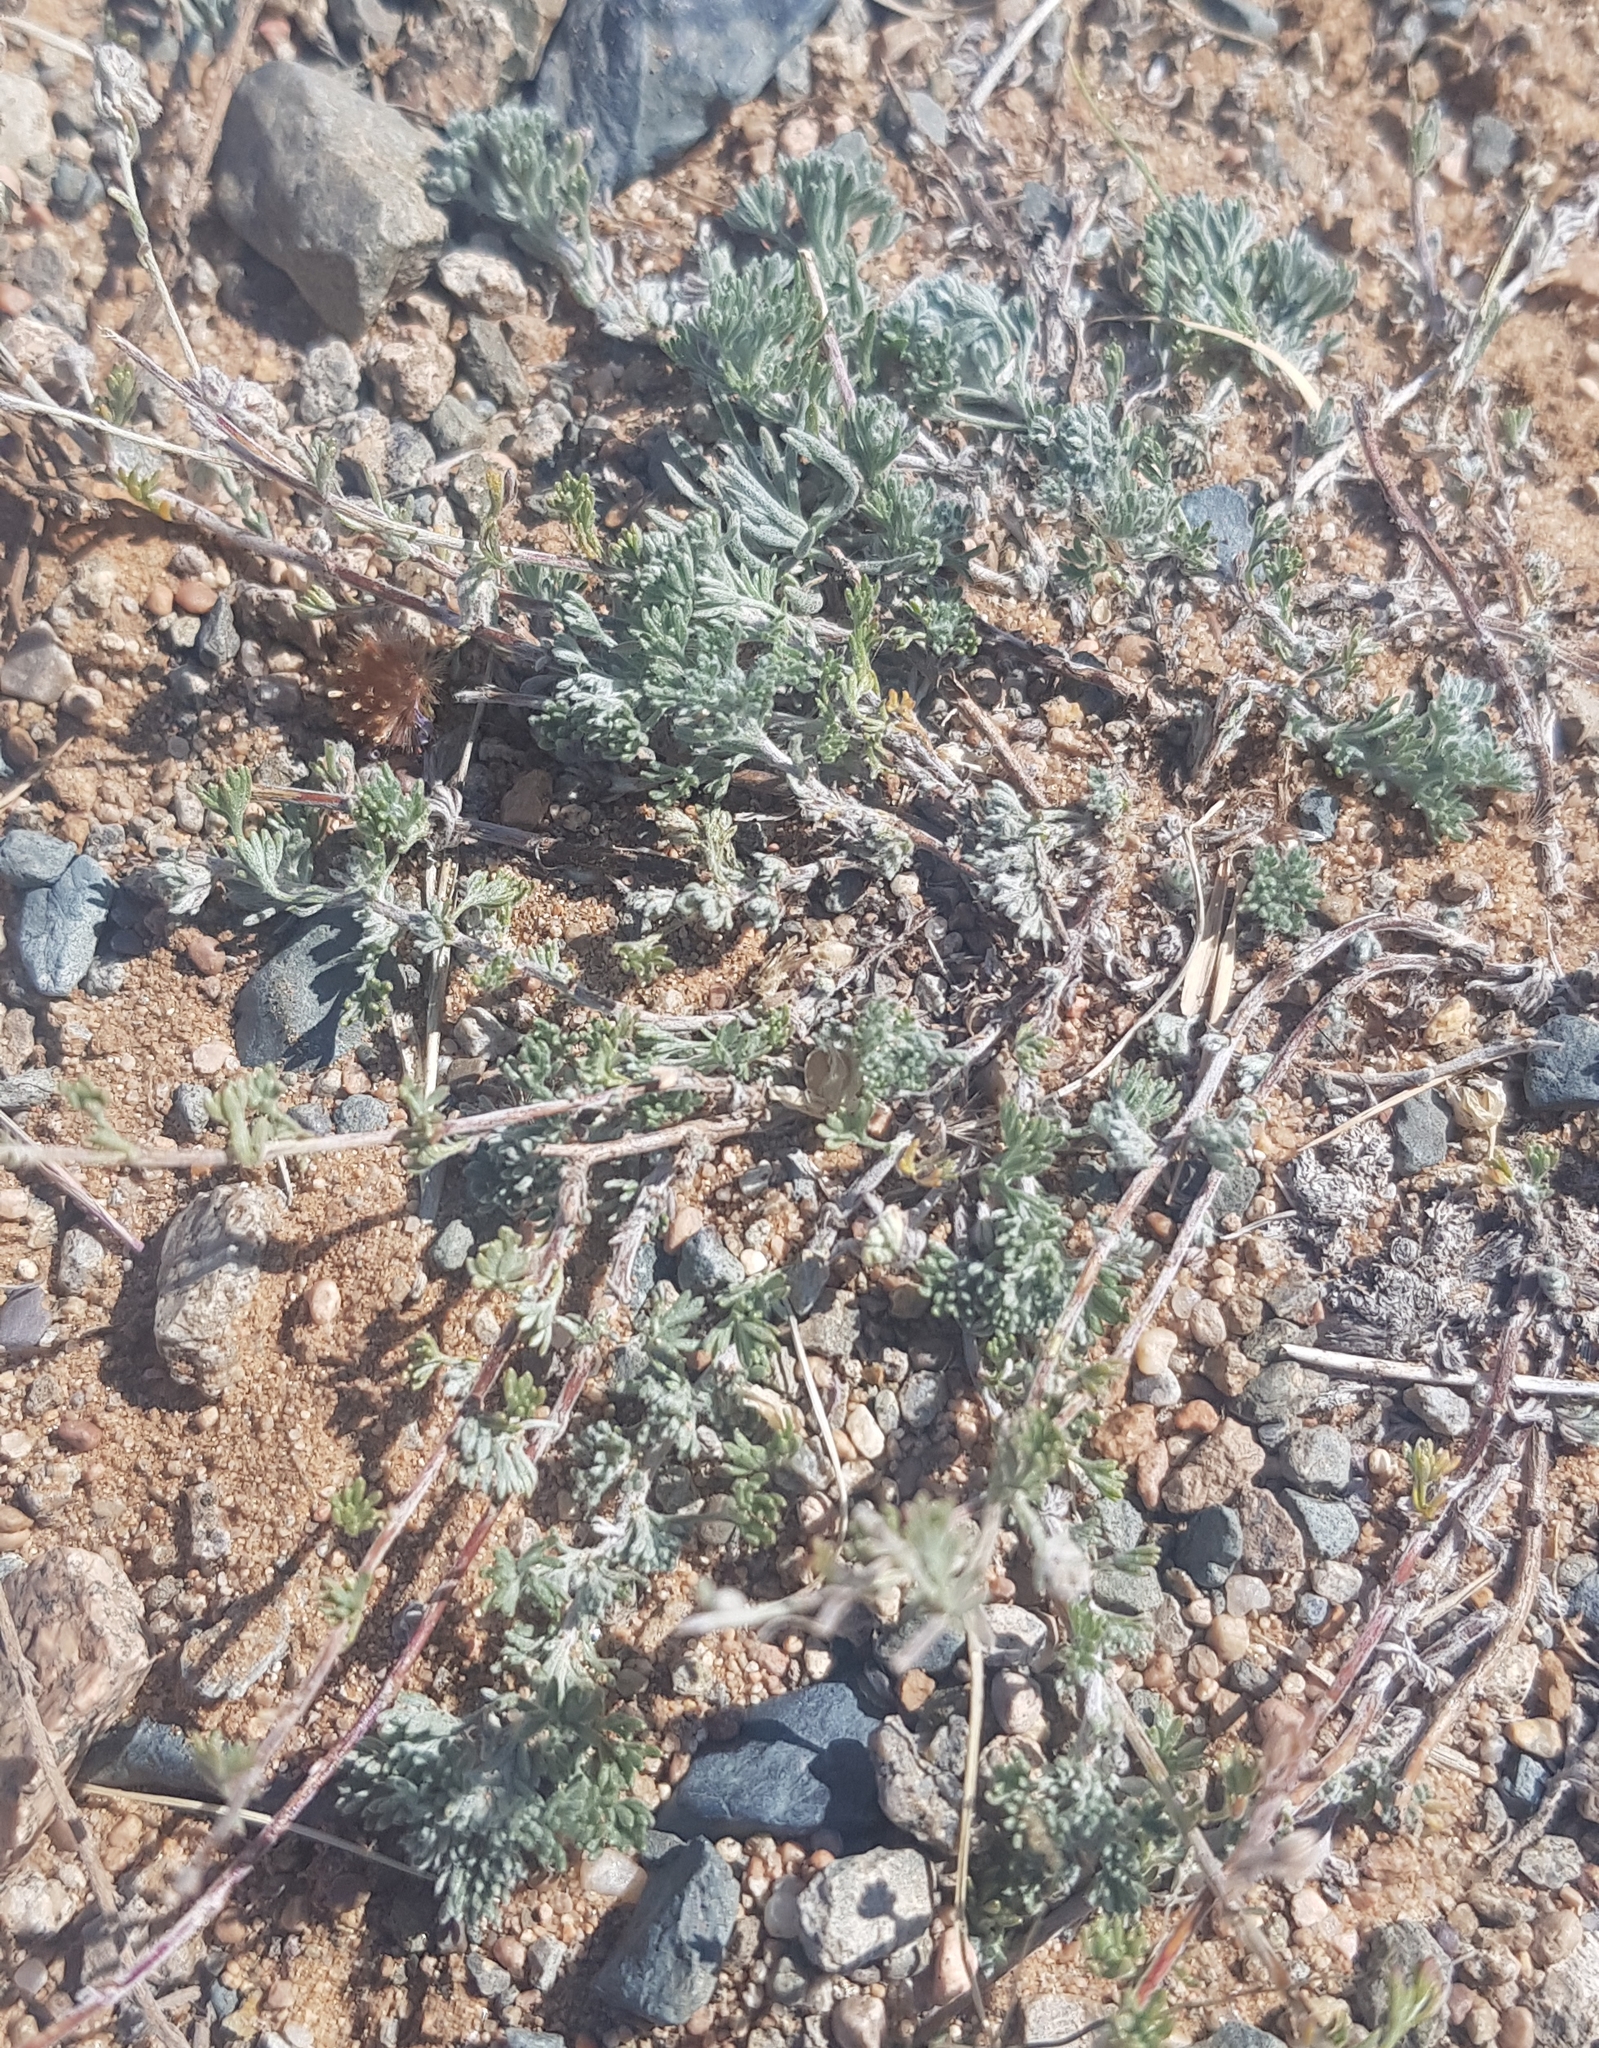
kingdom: Plantae
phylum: Tracheophyta
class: Magnoliopsida
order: Asterales
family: Asteraceae
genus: Artemisia
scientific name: Artemisia frigida
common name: Prairie sagewort
